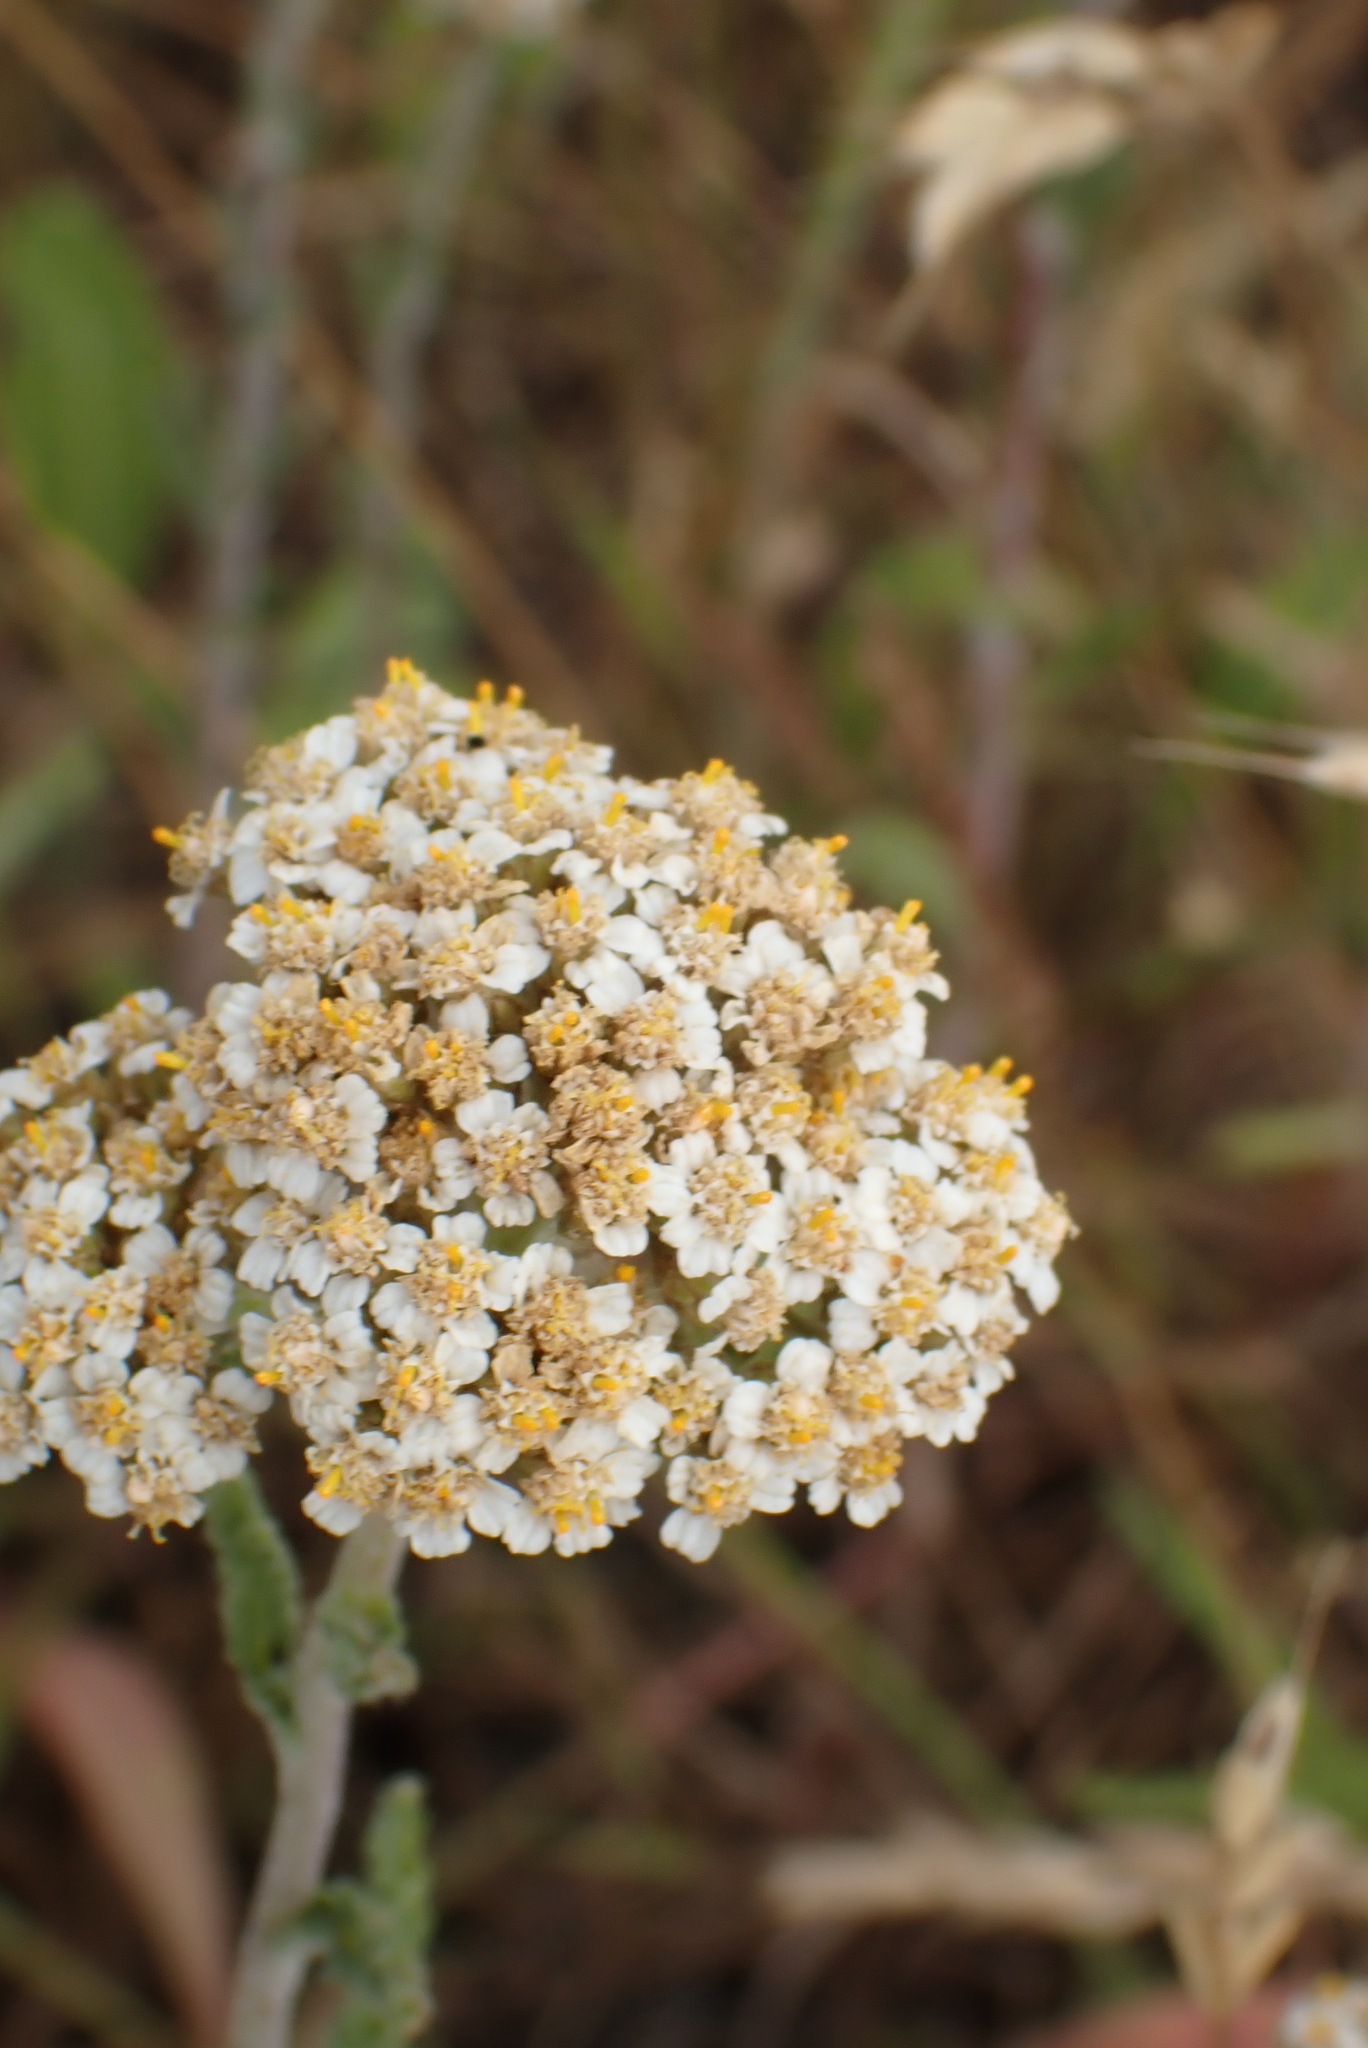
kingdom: Plantae
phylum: Tracheophyta
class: Magnoliopsida
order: Asterales
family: Asteraceae
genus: Achillea
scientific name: Achillea millefolium
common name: Yarrow
